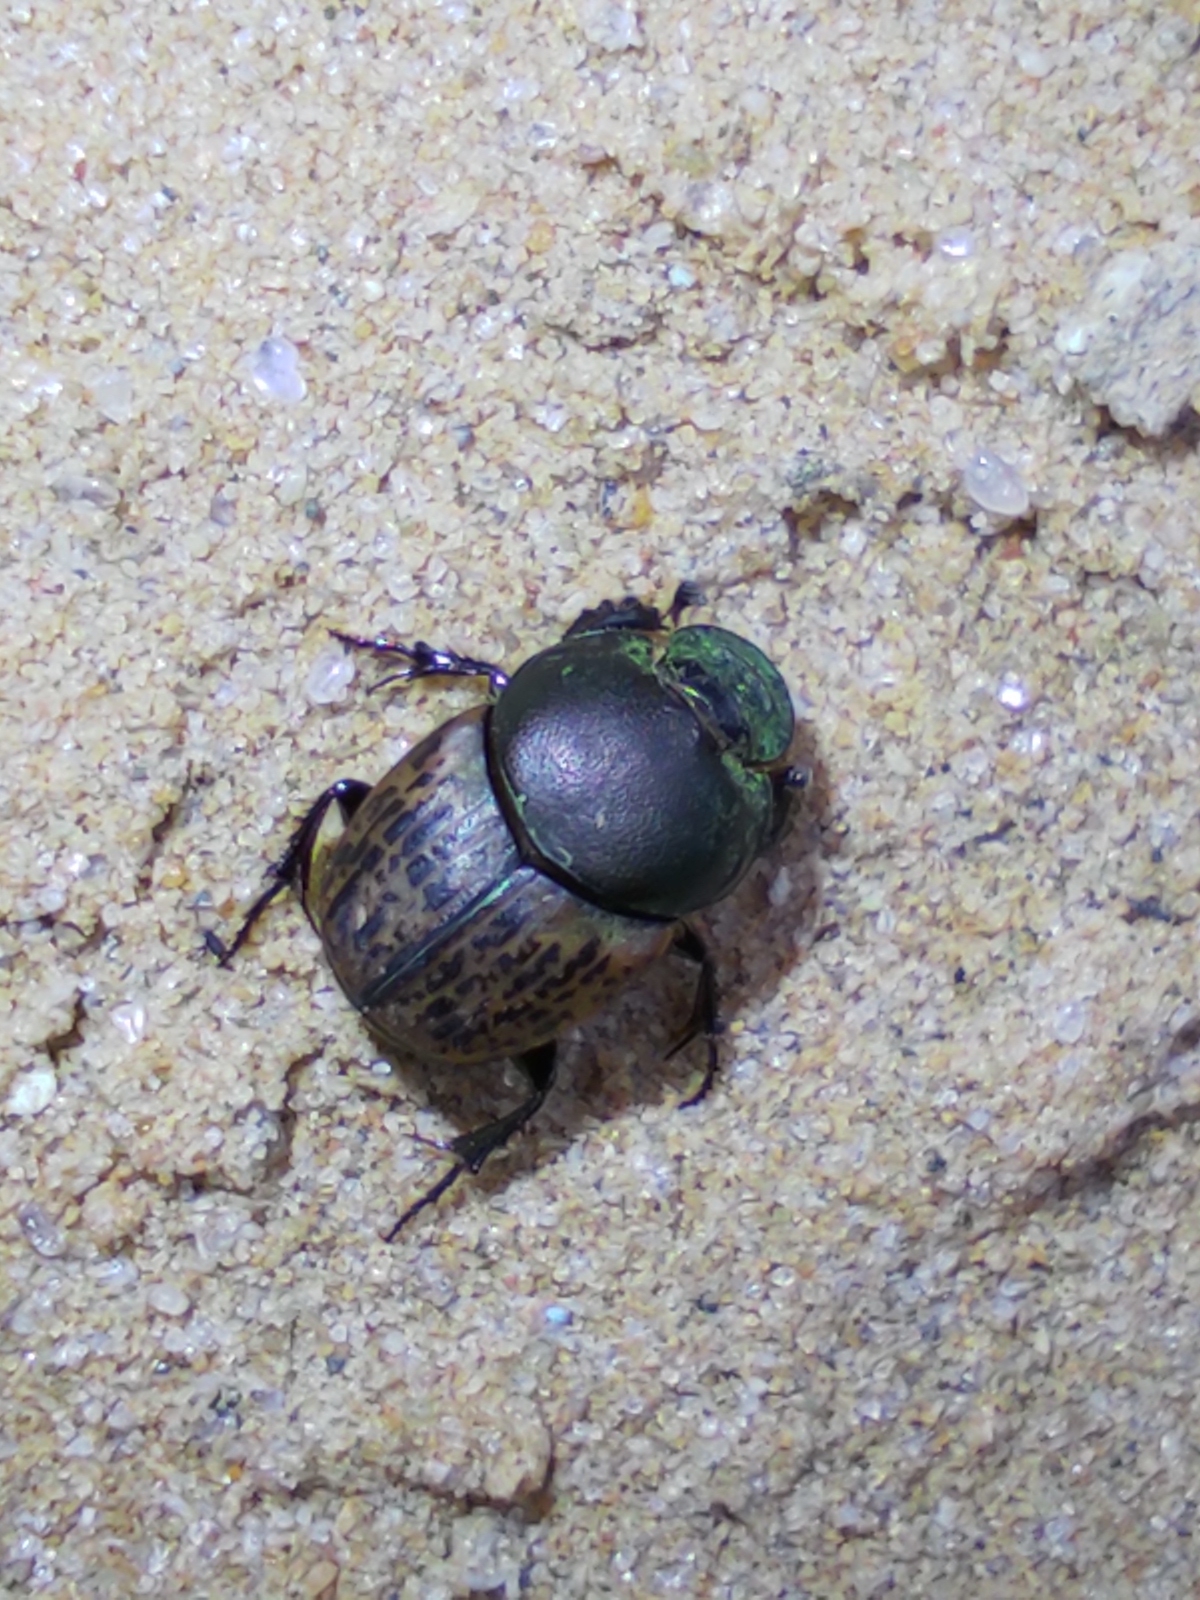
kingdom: Animalia
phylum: Arthropoda
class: Insecta
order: Coleoptera
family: Scarabaeidae
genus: Onthophagus
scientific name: Onthophagus vacca
